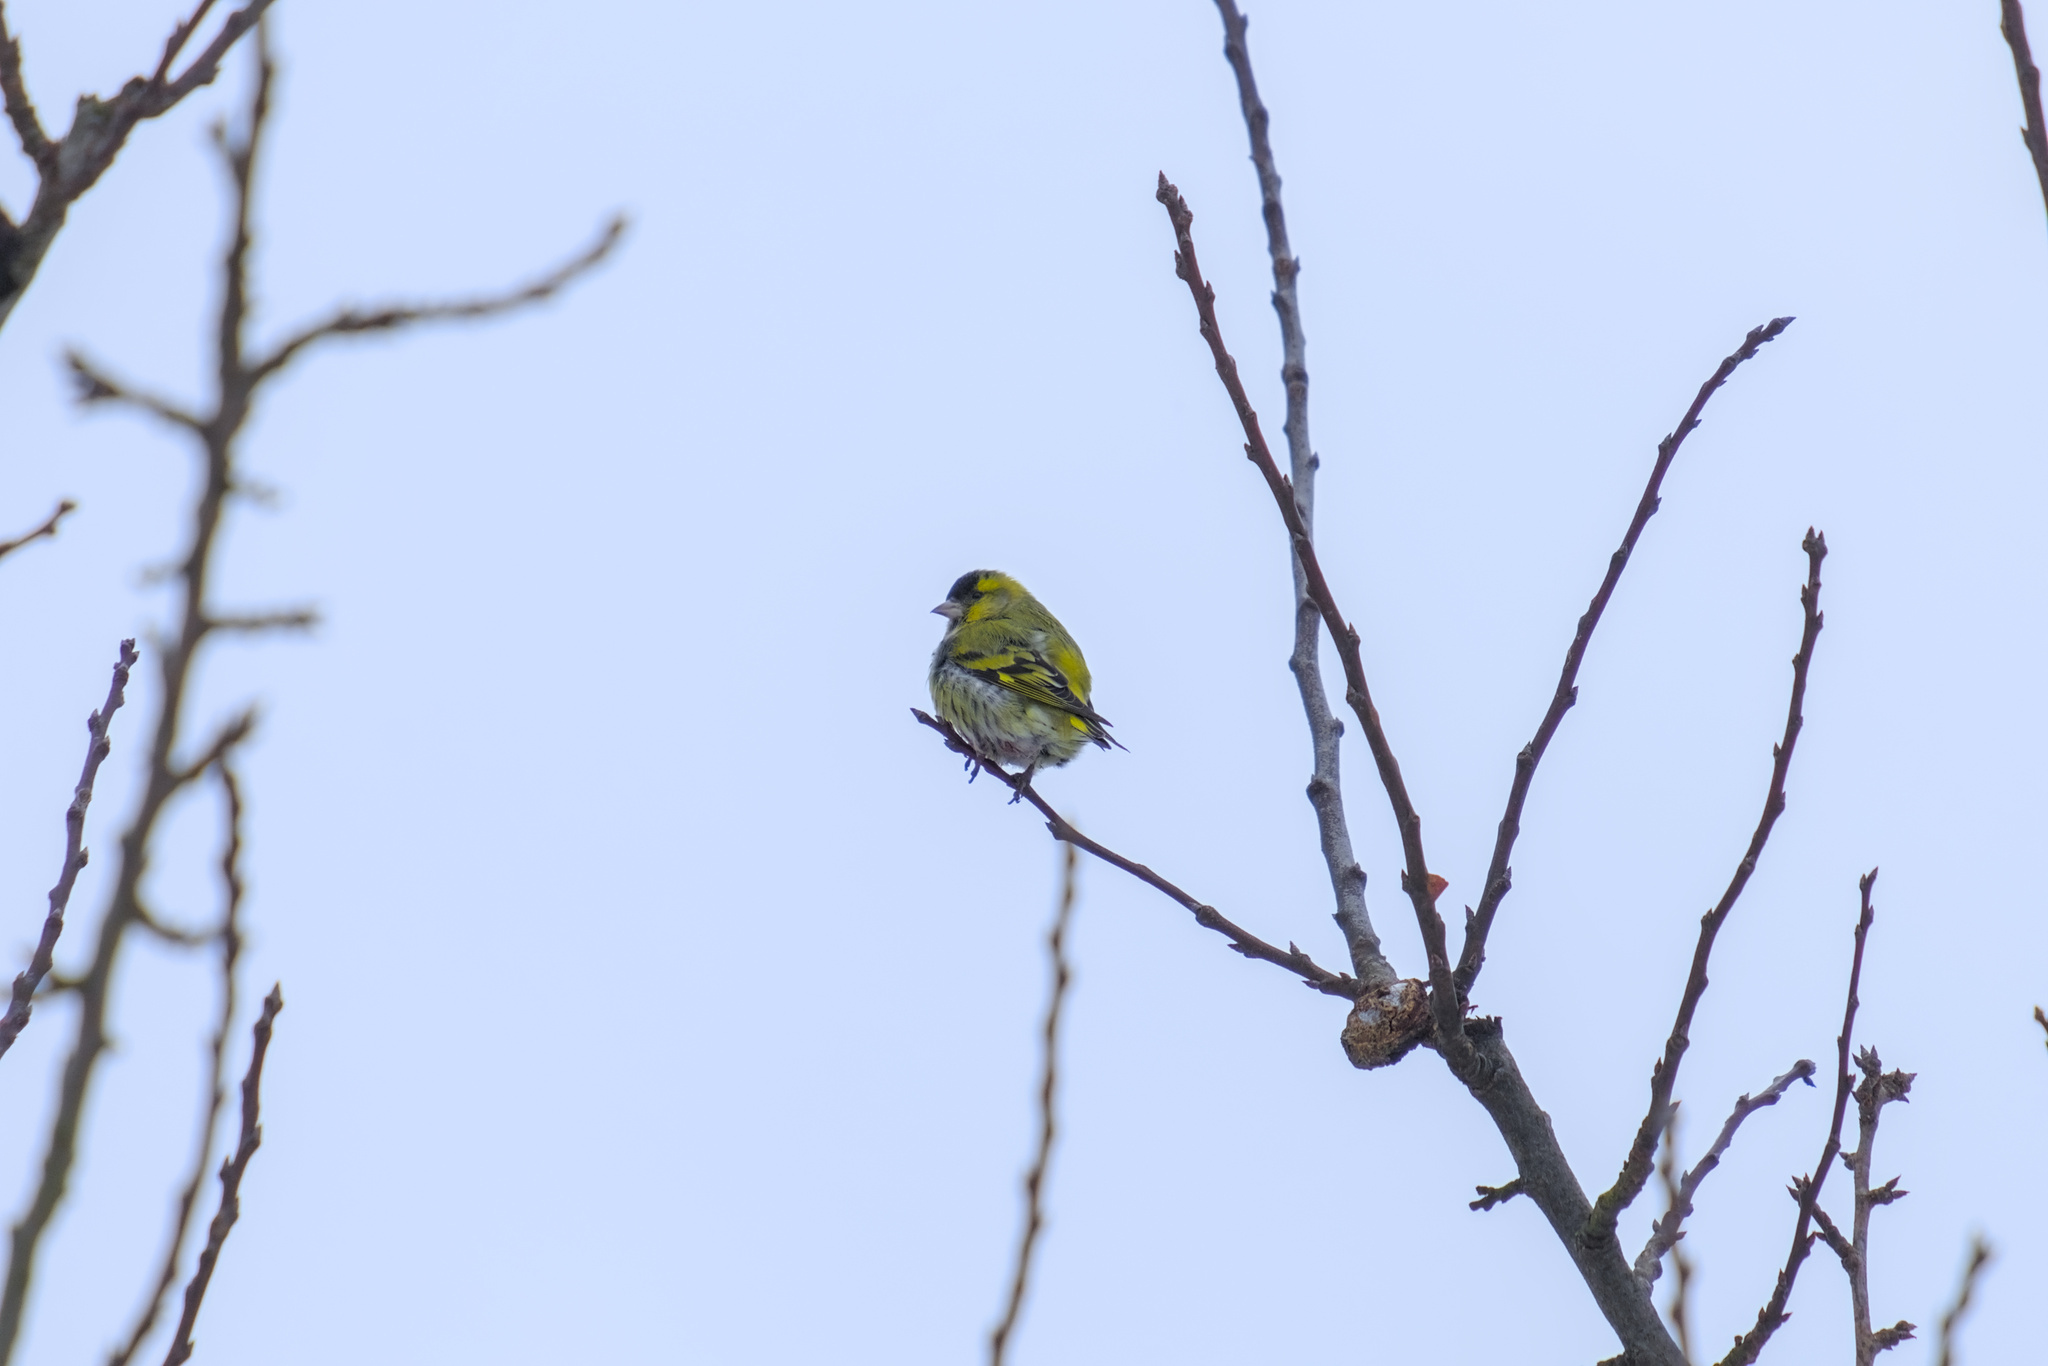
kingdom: Animalia
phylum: Chordata
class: Aves
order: Passeriformes
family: Fringillidae
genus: Spinus
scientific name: Spinus spinus
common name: Eurasian siskin
